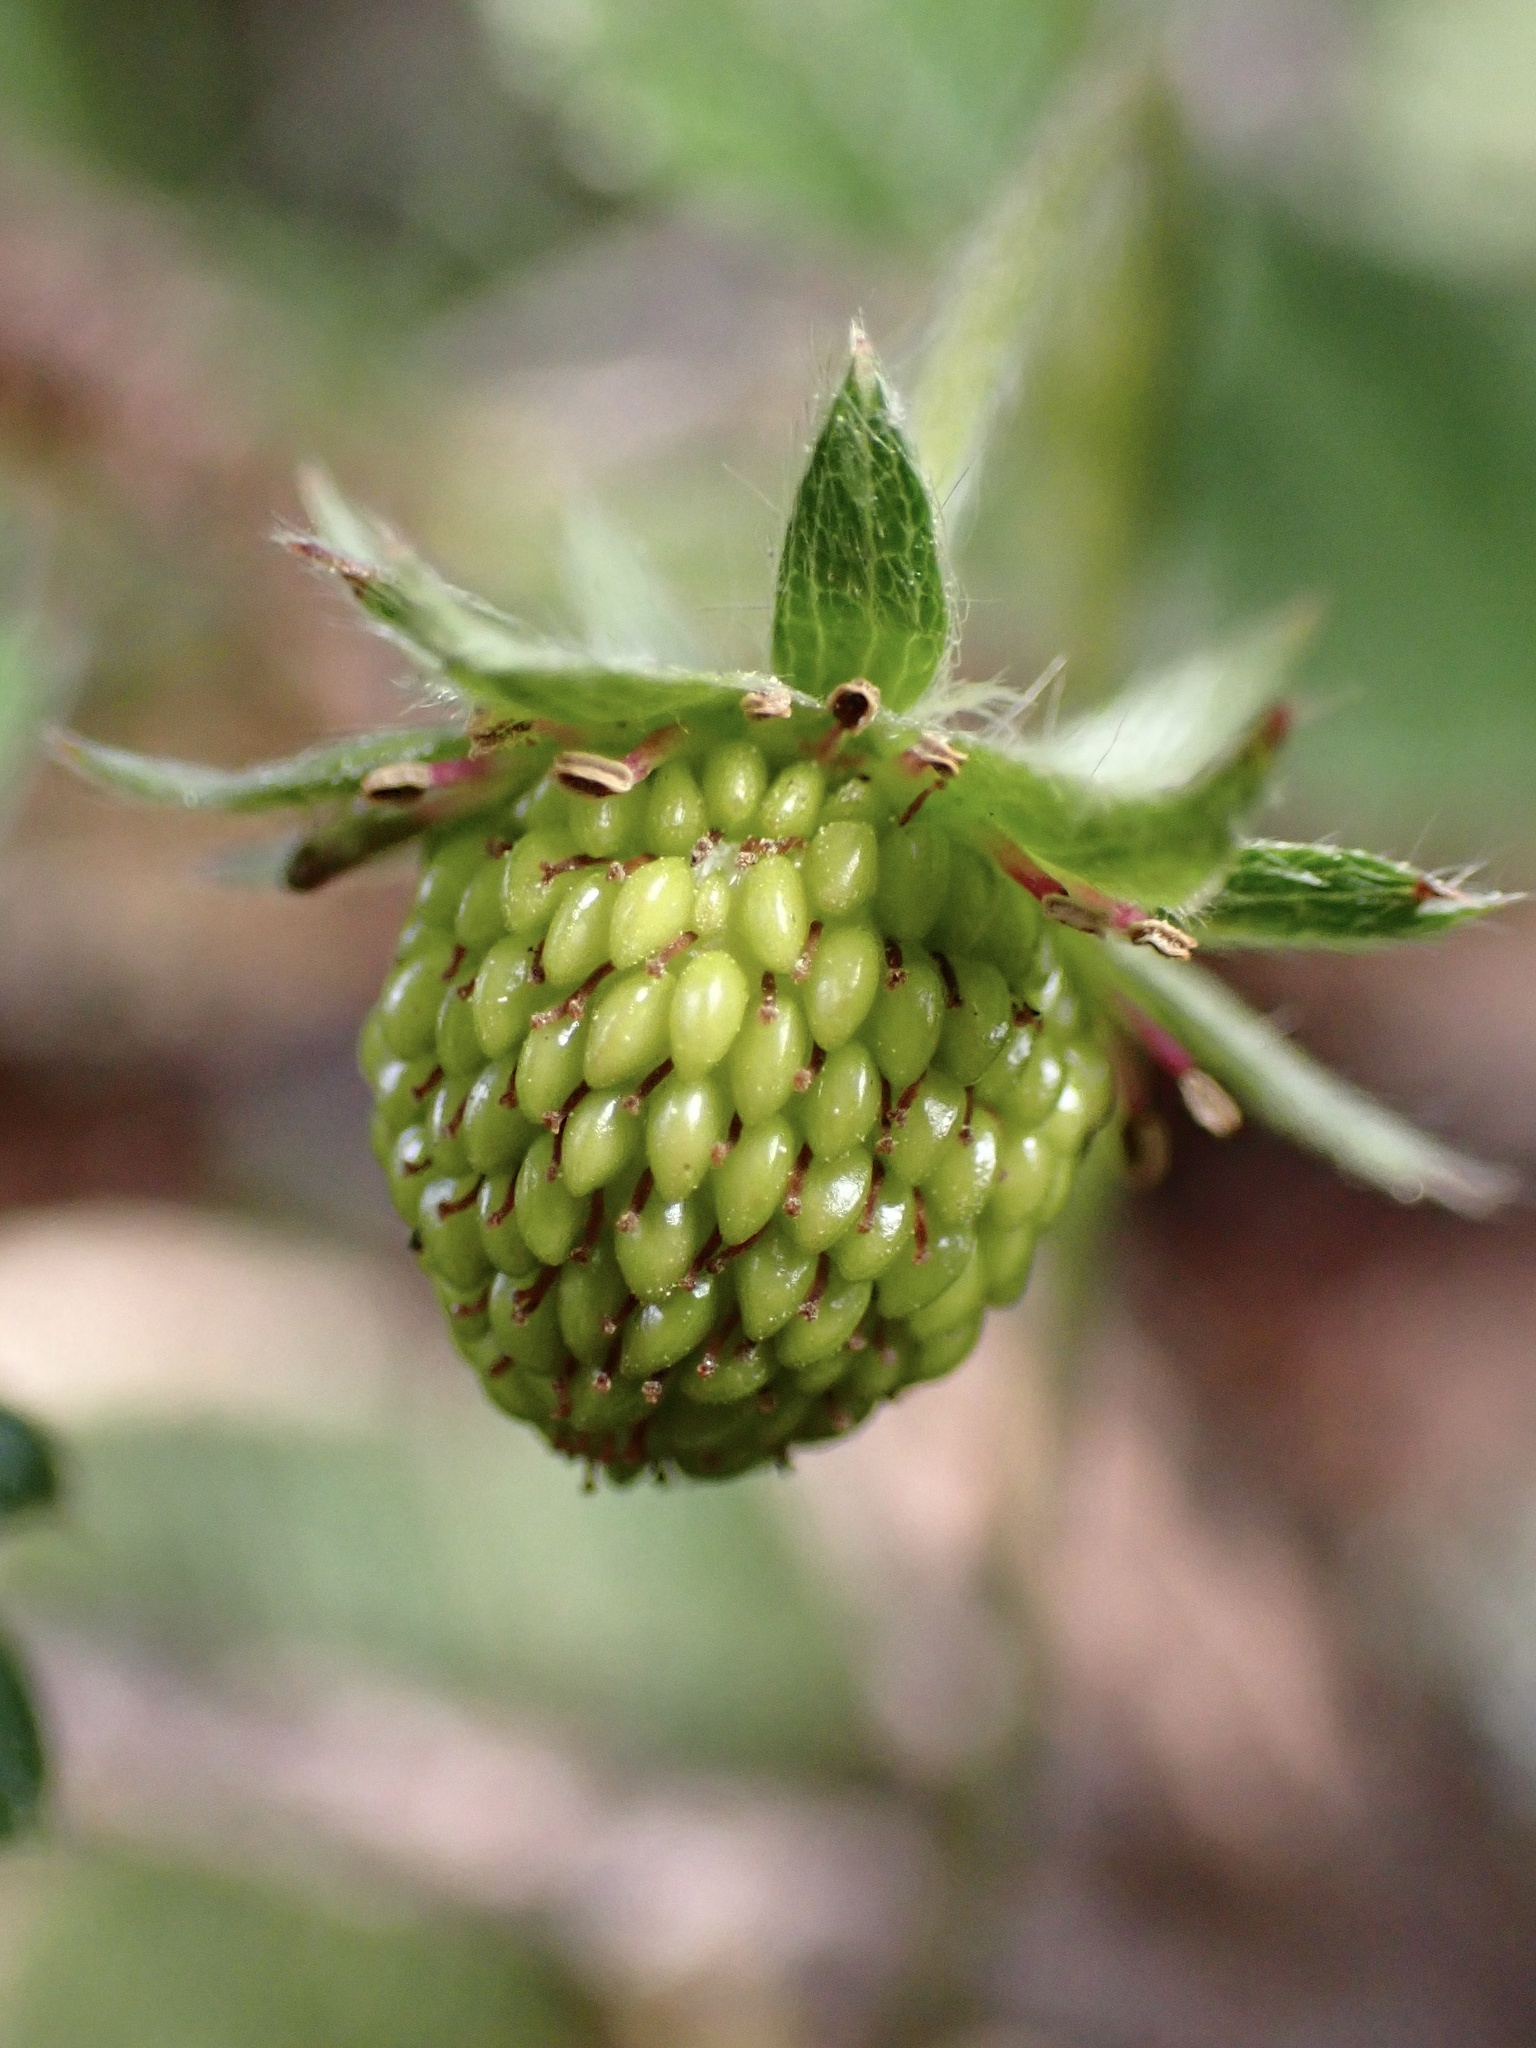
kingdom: Plantae
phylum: Tracheophyta
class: Magnoliopsida
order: Rosales
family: Rosaceae
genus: Fragaria
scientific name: Fragaria vesca
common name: Wild strawberry
